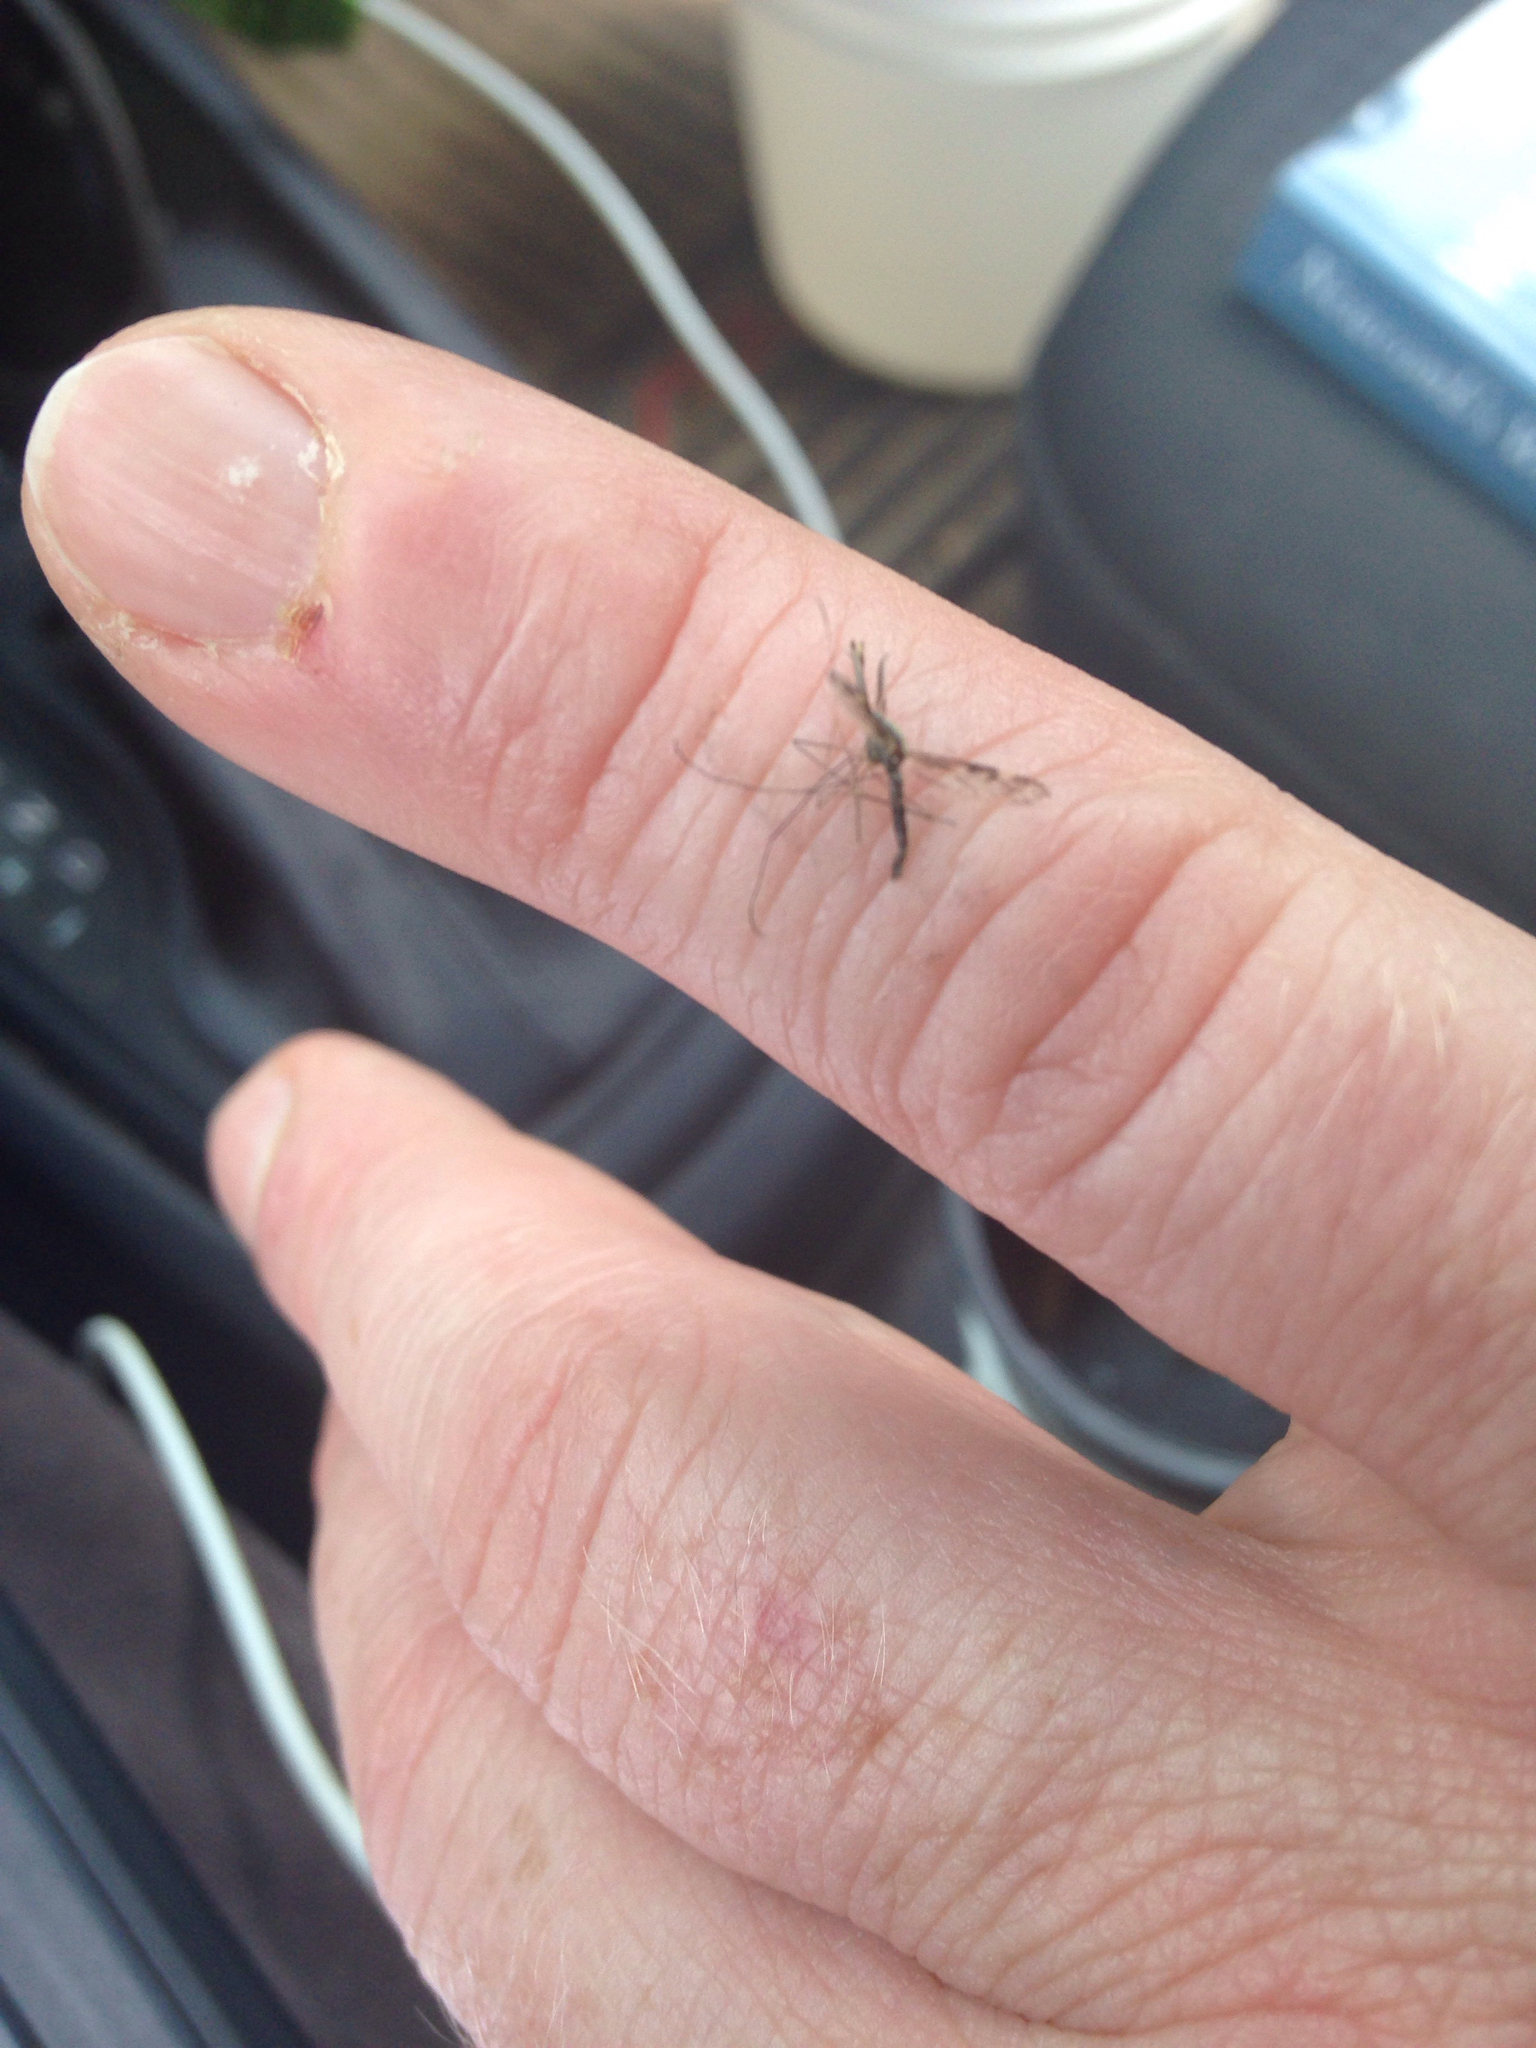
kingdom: Animalia
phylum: Arthropoda
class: Insecta
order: Diptera
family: Culicidae
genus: Anopheles
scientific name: Anopheles punctipennis
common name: Woodland malaria mosquito
